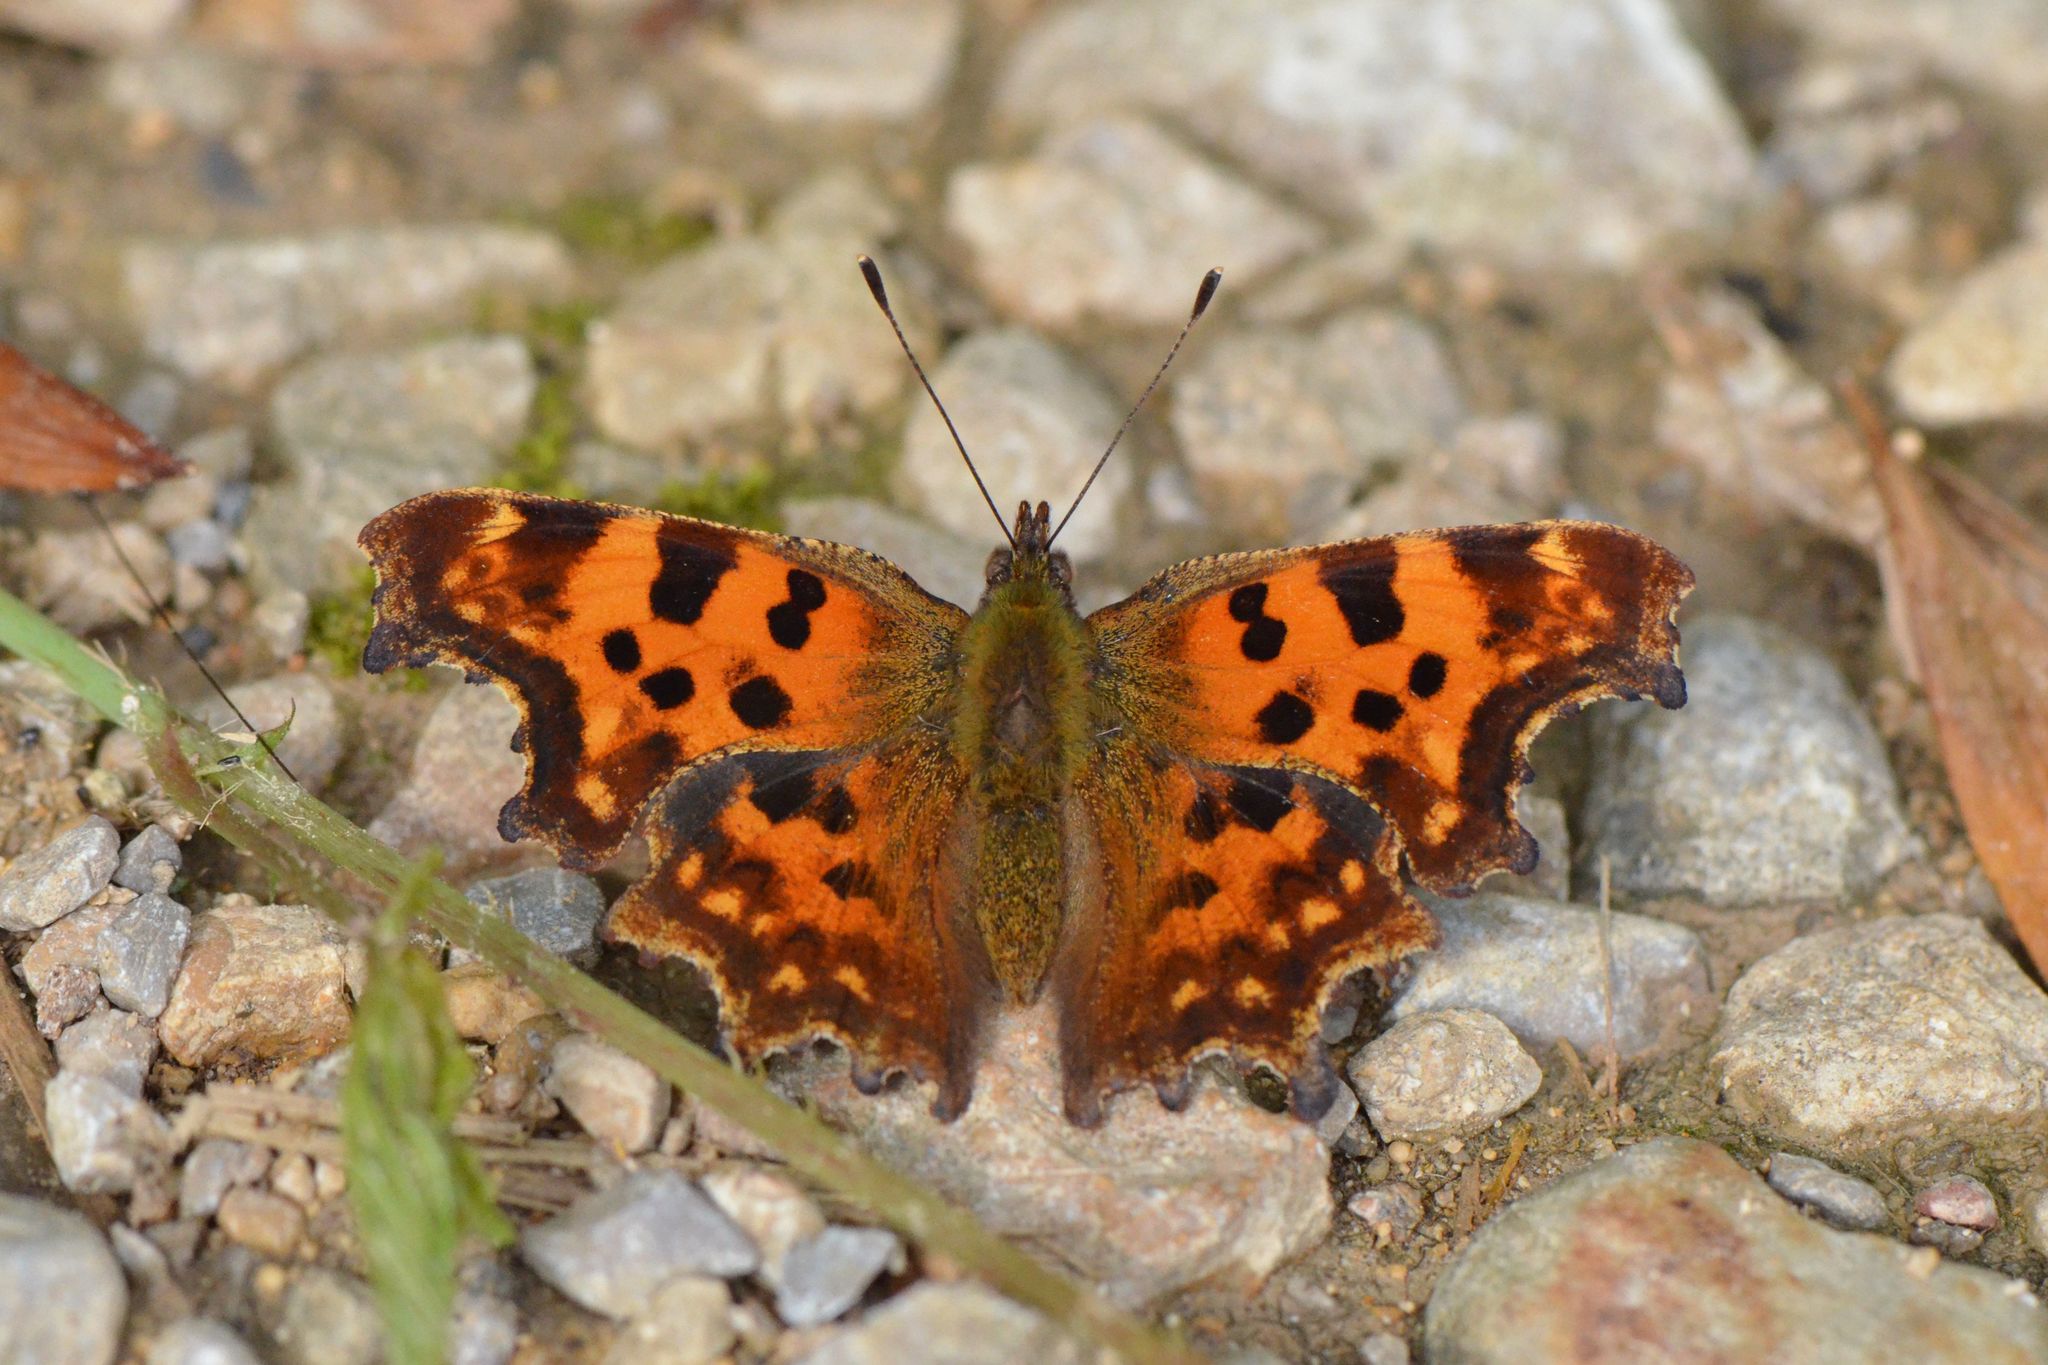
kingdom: Animalia
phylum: Arthropoda
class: Insecta
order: Lepidoptera
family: Nymphalidae
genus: Polygonia
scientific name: Polygonia c-album
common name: Comma
